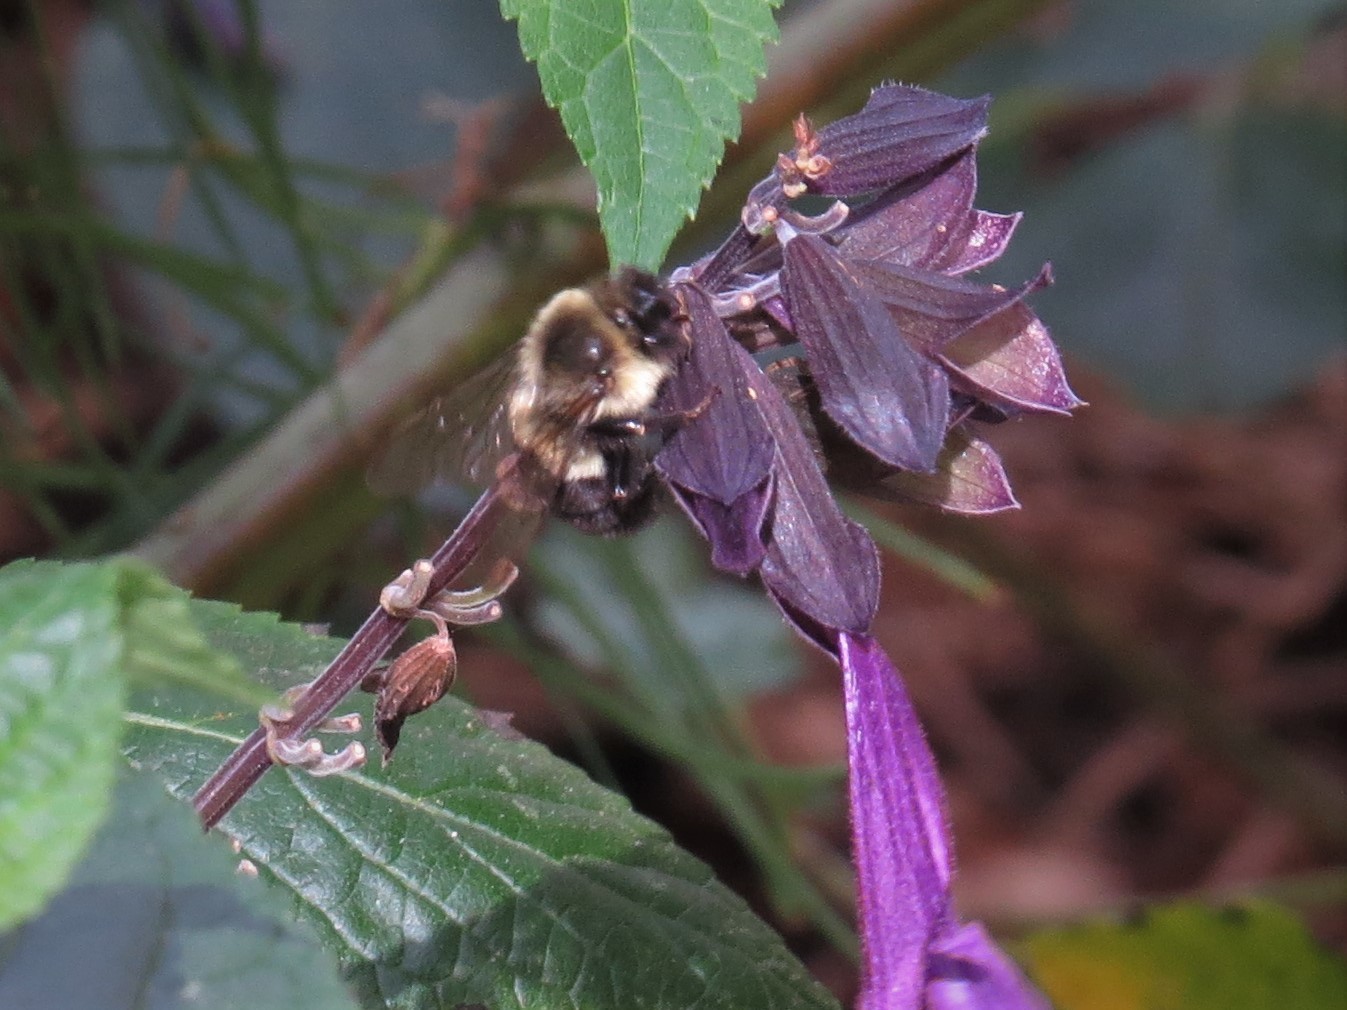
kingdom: Animalia
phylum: Arthropoda
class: Insecta
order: Hymenoptera
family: Apidae
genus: Bombus
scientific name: Bombus impatiens
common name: Common eastern bumble bee
